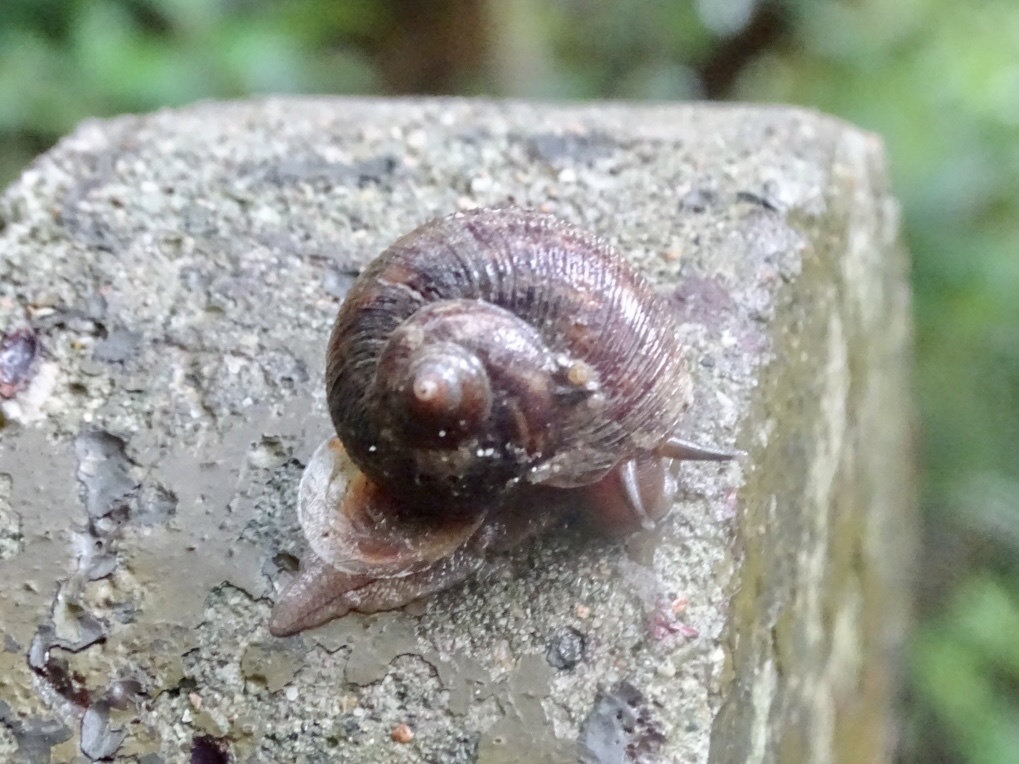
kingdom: Animalia
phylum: Mollusca
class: Gastropoda
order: Architaenioglossa
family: Cyclophoridae
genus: Cyclophorus
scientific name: Cyclophorus punctatus
